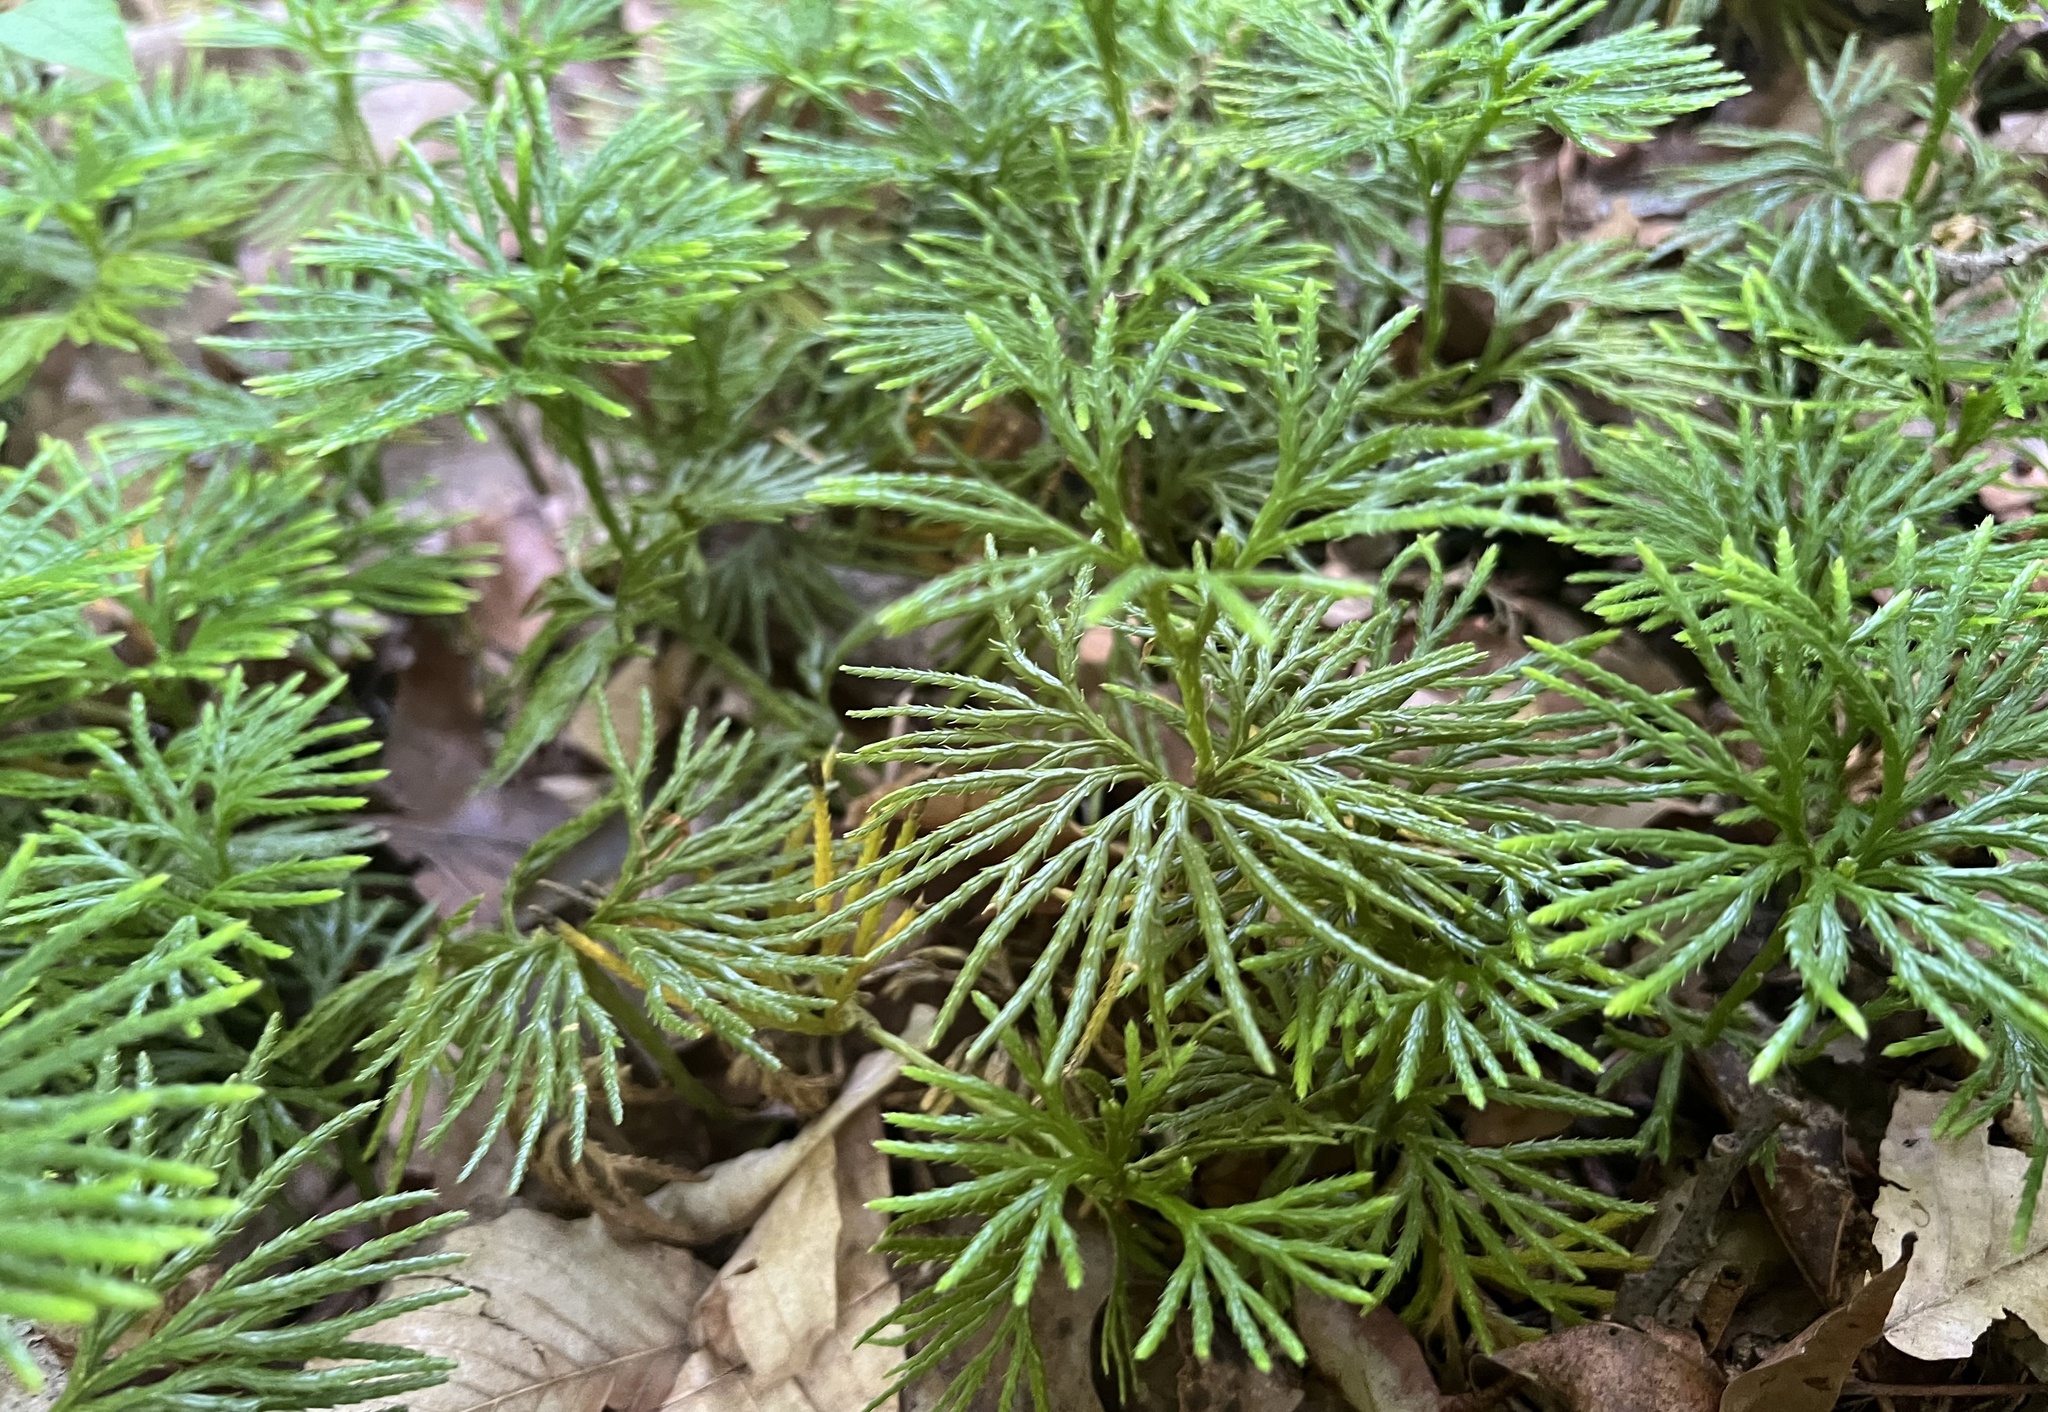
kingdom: Plantae
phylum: Tracheophyta
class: Lycopodiopsida
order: Lycopodiales
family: Lycopodiaceae
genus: Diphasiastrum
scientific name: Diphasiastrum digitatum
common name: Southern running-pine
